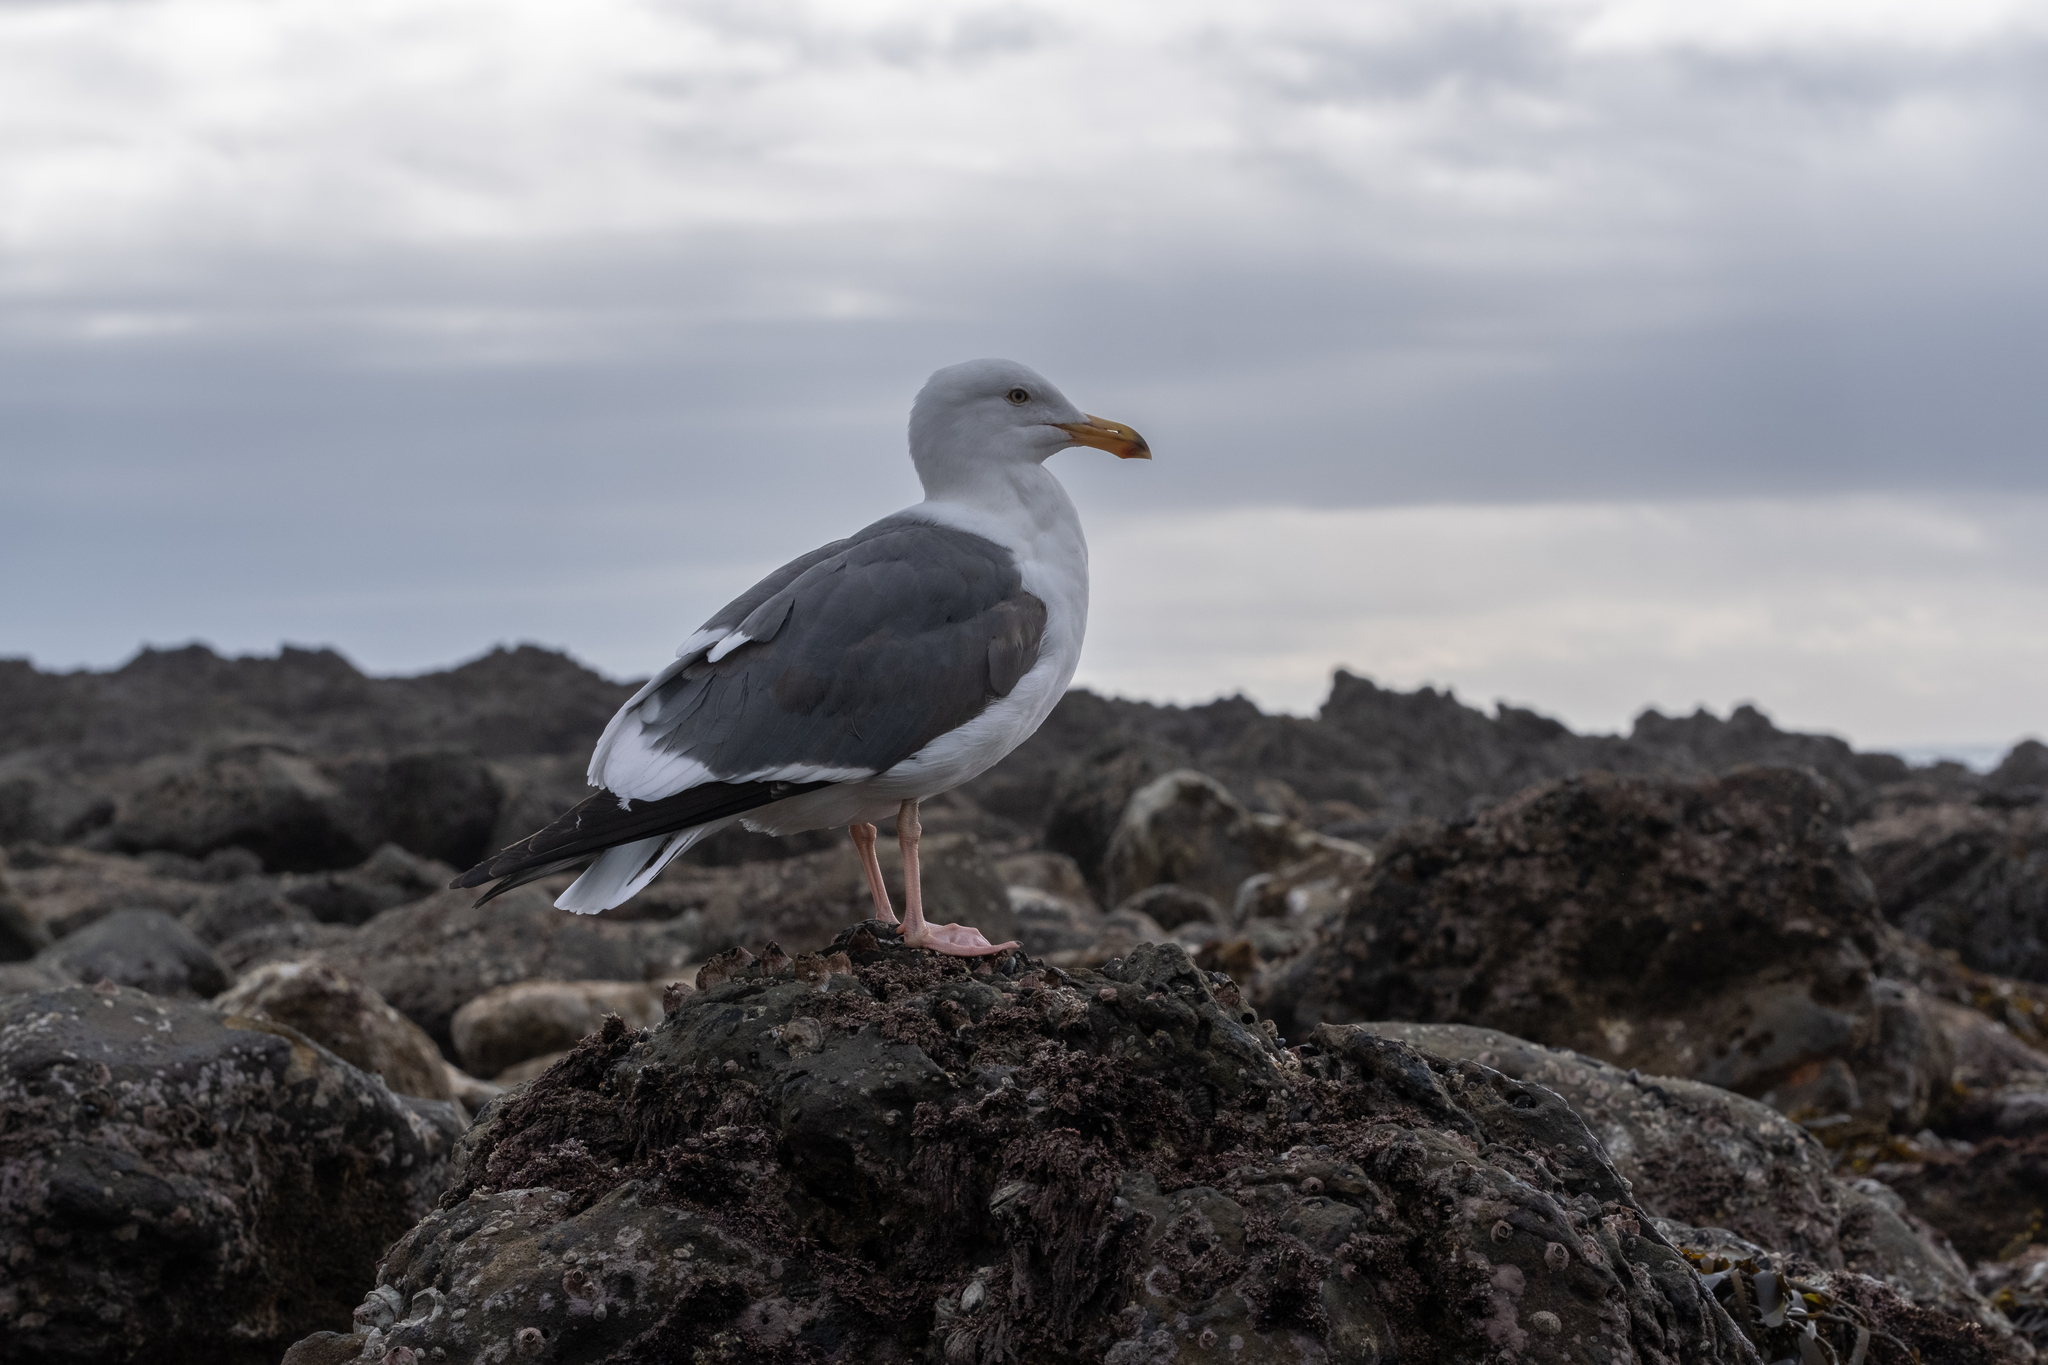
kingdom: Animalia
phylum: Chordata
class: Aves
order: Charadriiformes
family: Laridae
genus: Larus
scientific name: Larus occidentalis
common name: Western gull
